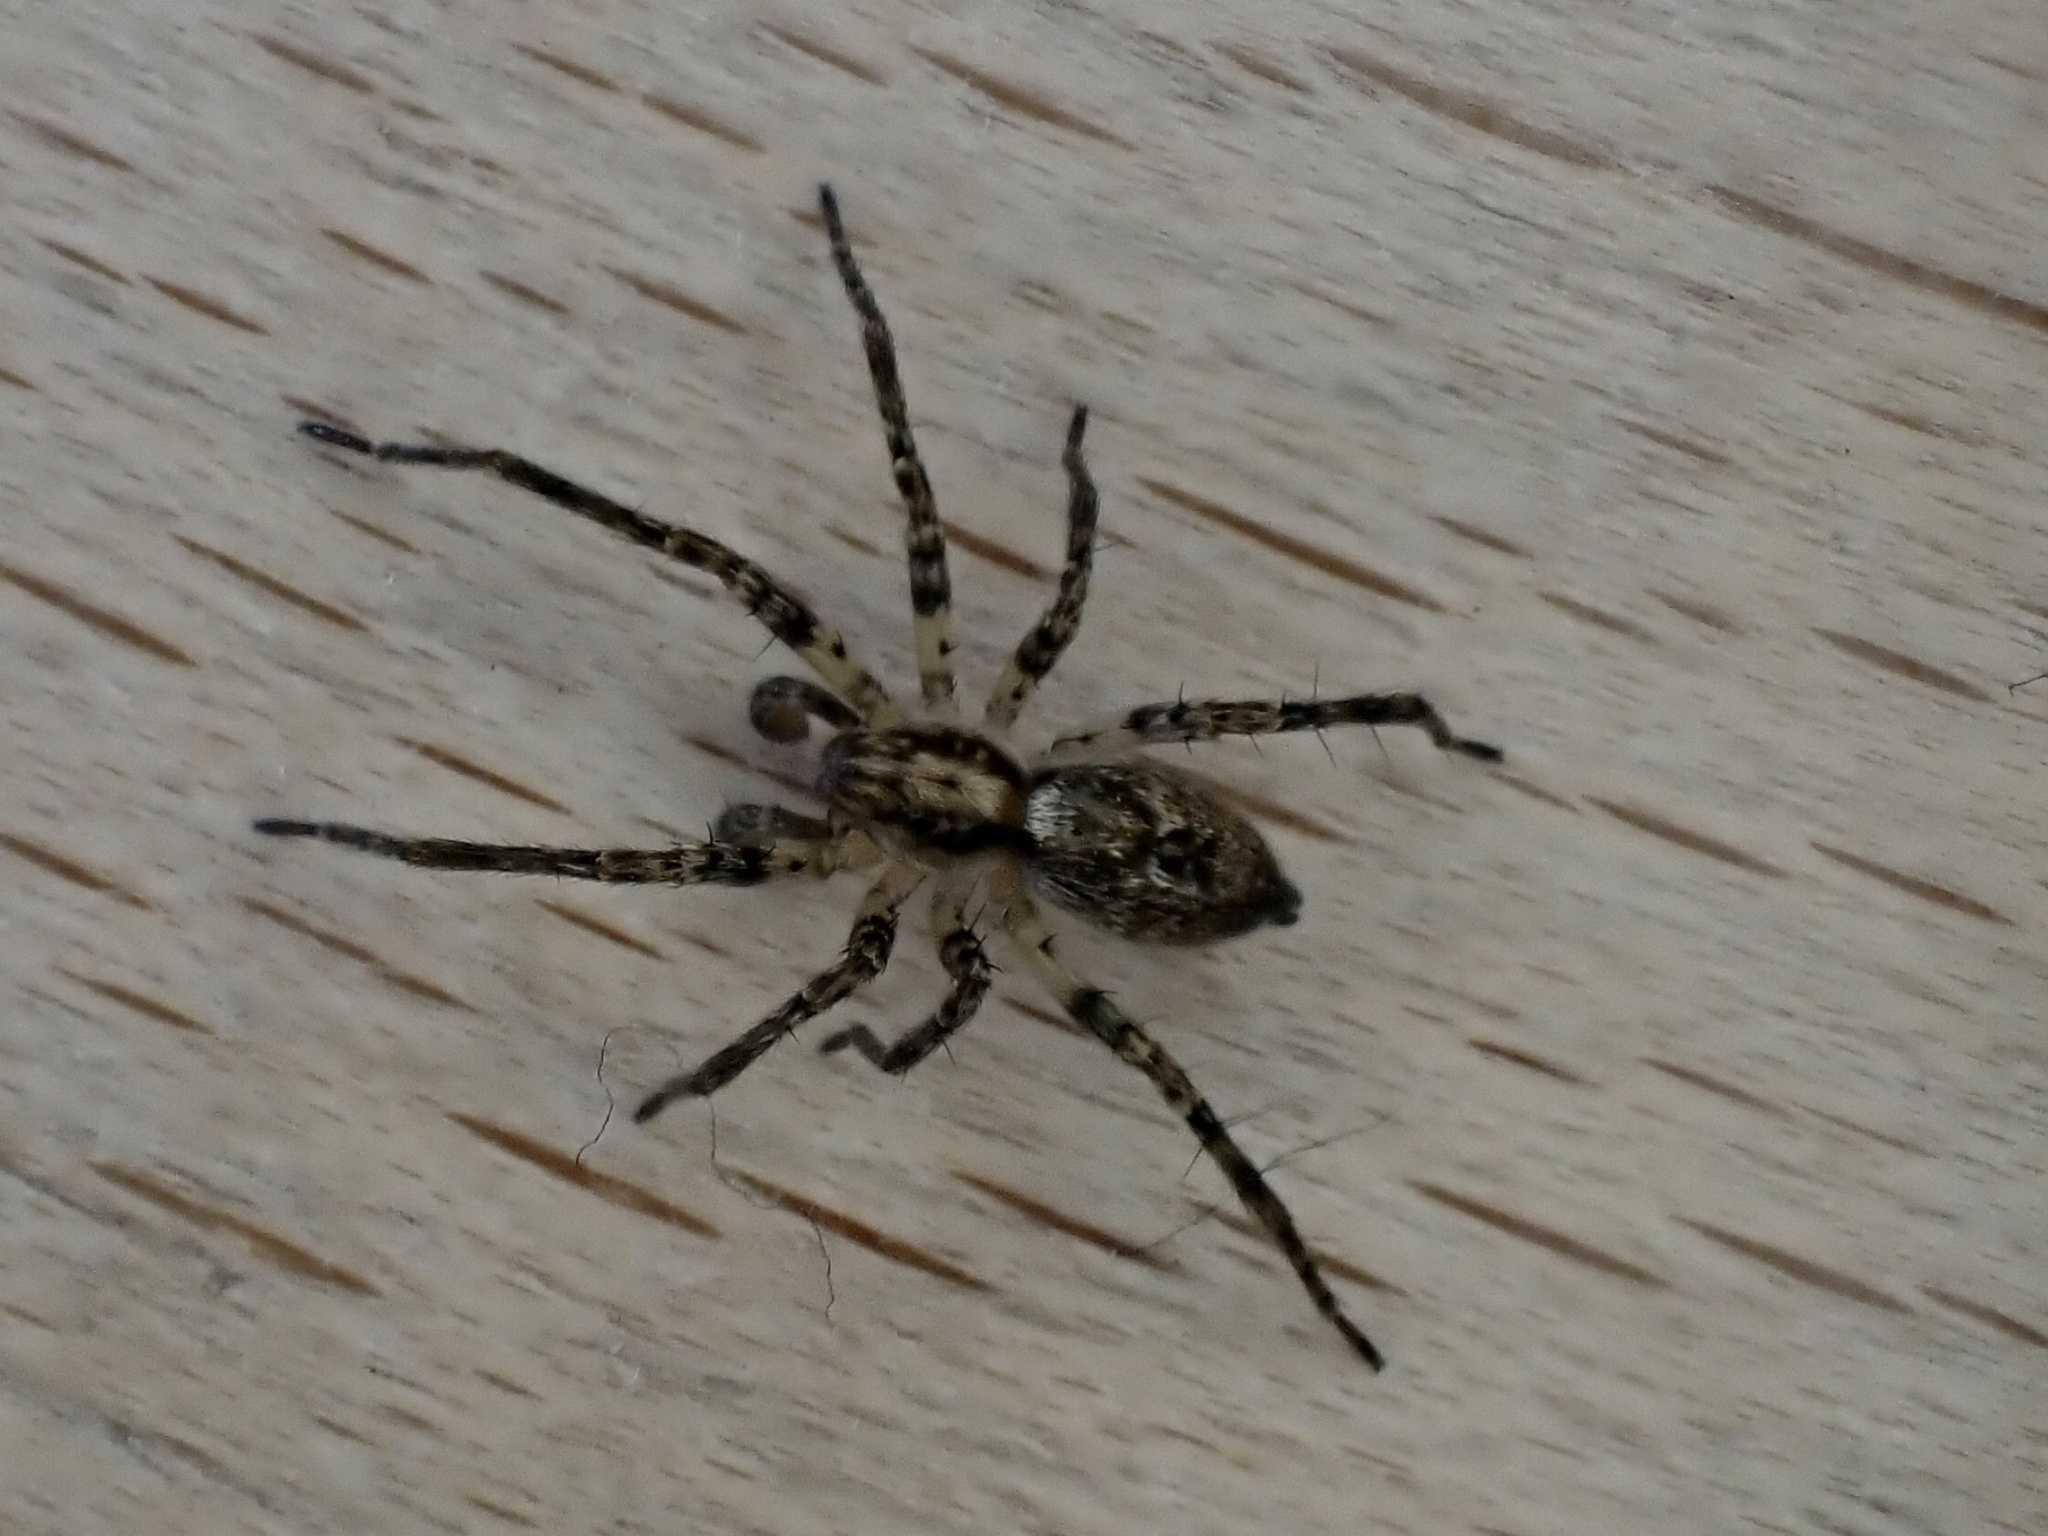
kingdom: Animalia
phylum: Arthropoda
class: Arachnida
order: Araneae
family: Anyphaenidae
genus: Anyphaena
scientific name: Anyphaena accentuata
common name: Buzzing spider
